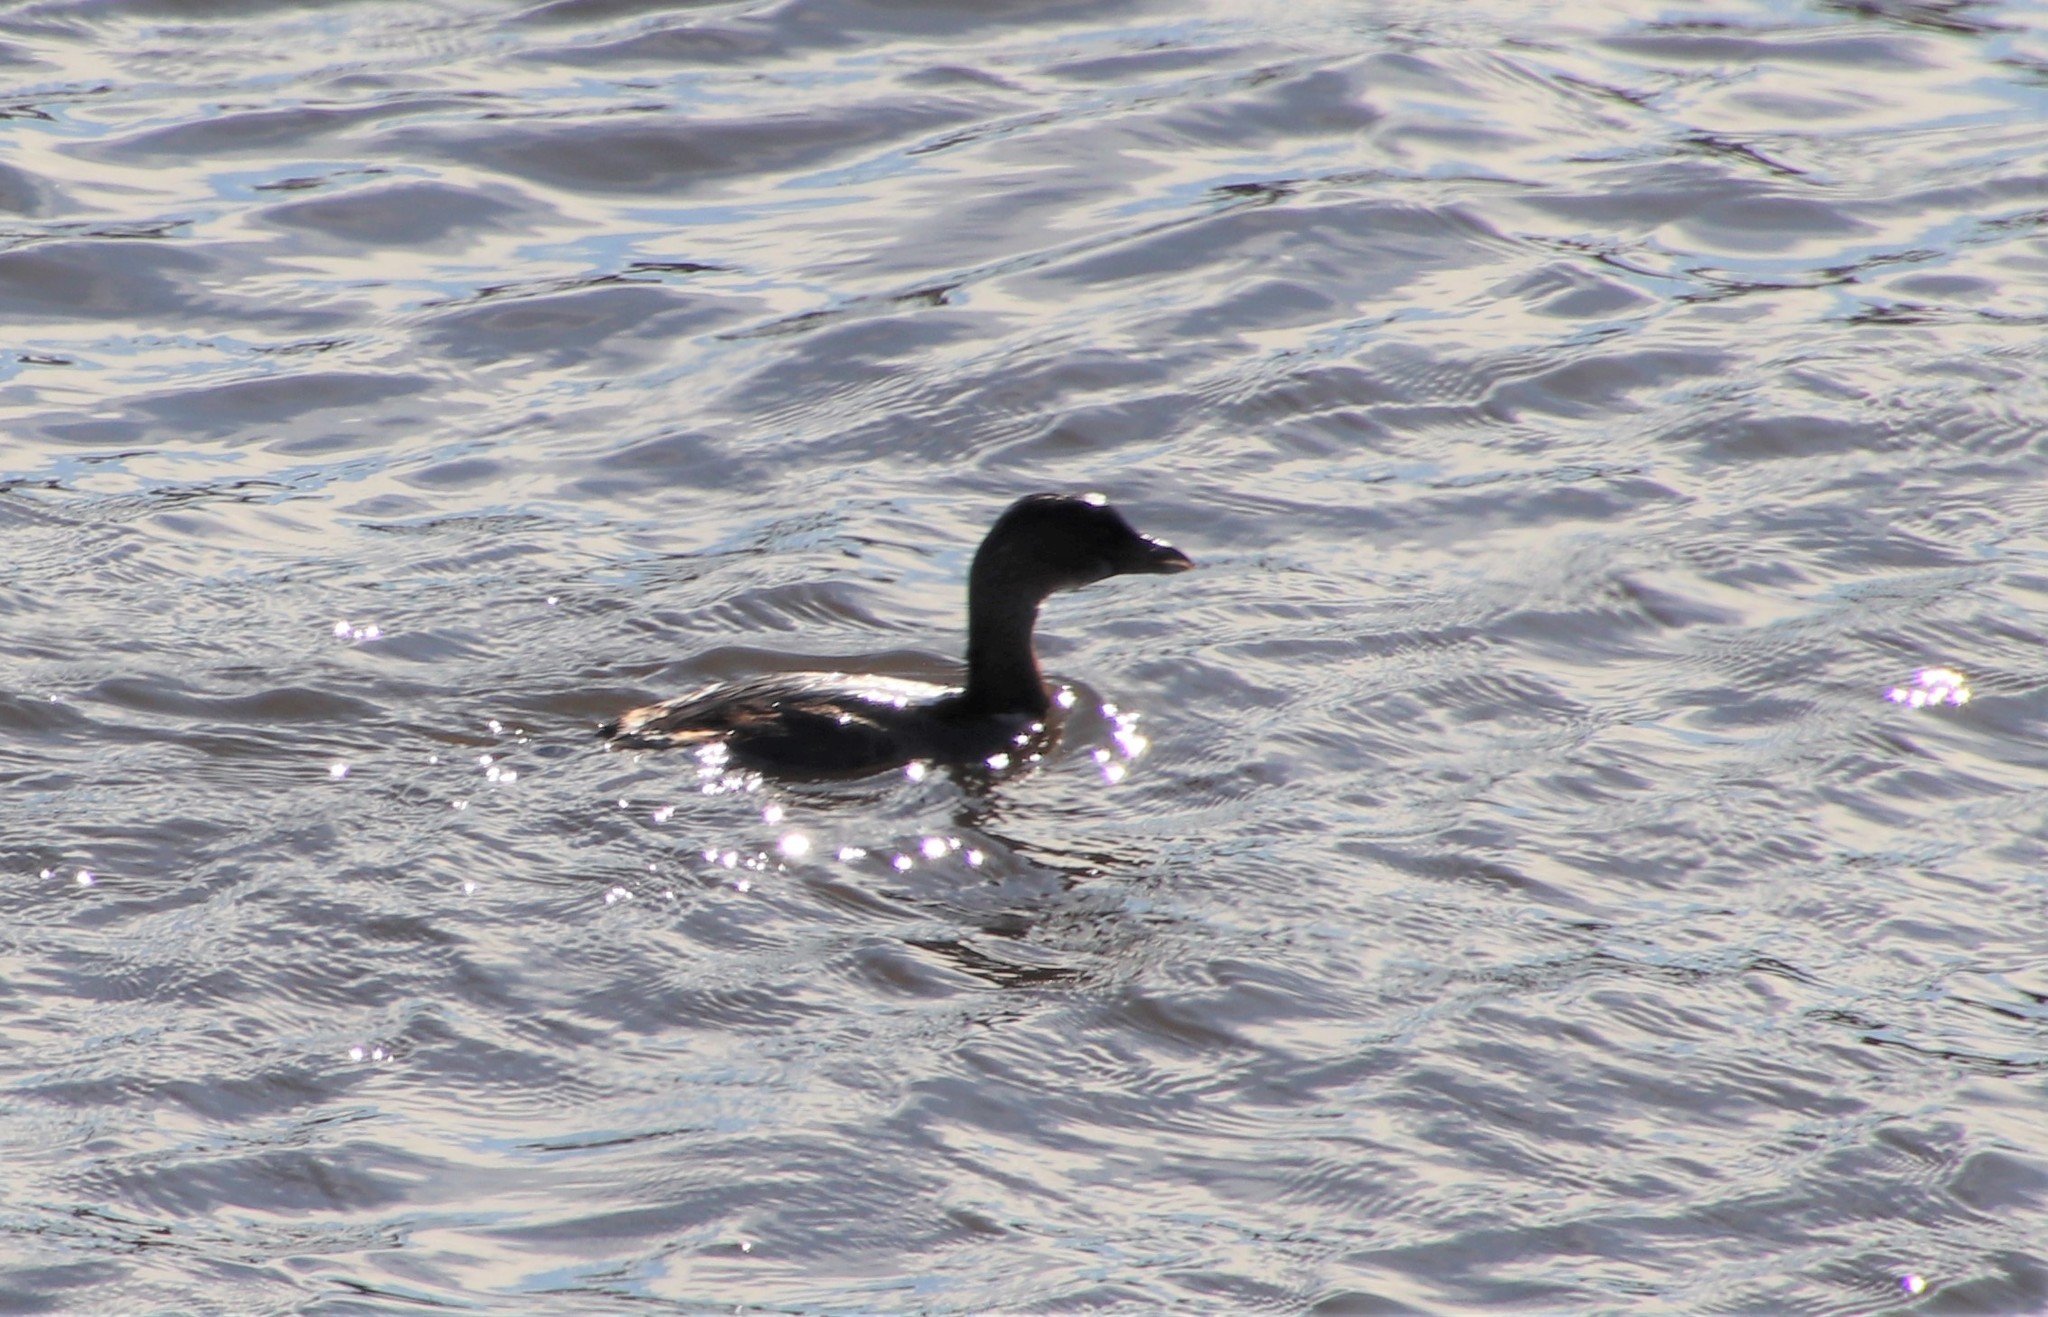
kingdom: Animalia
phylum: Chordata
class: Aves
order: Podicipediformes
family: Podicipedidae
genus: Podilymbus
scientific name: Podilymbus podiceps
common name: Pied-billed grebe
